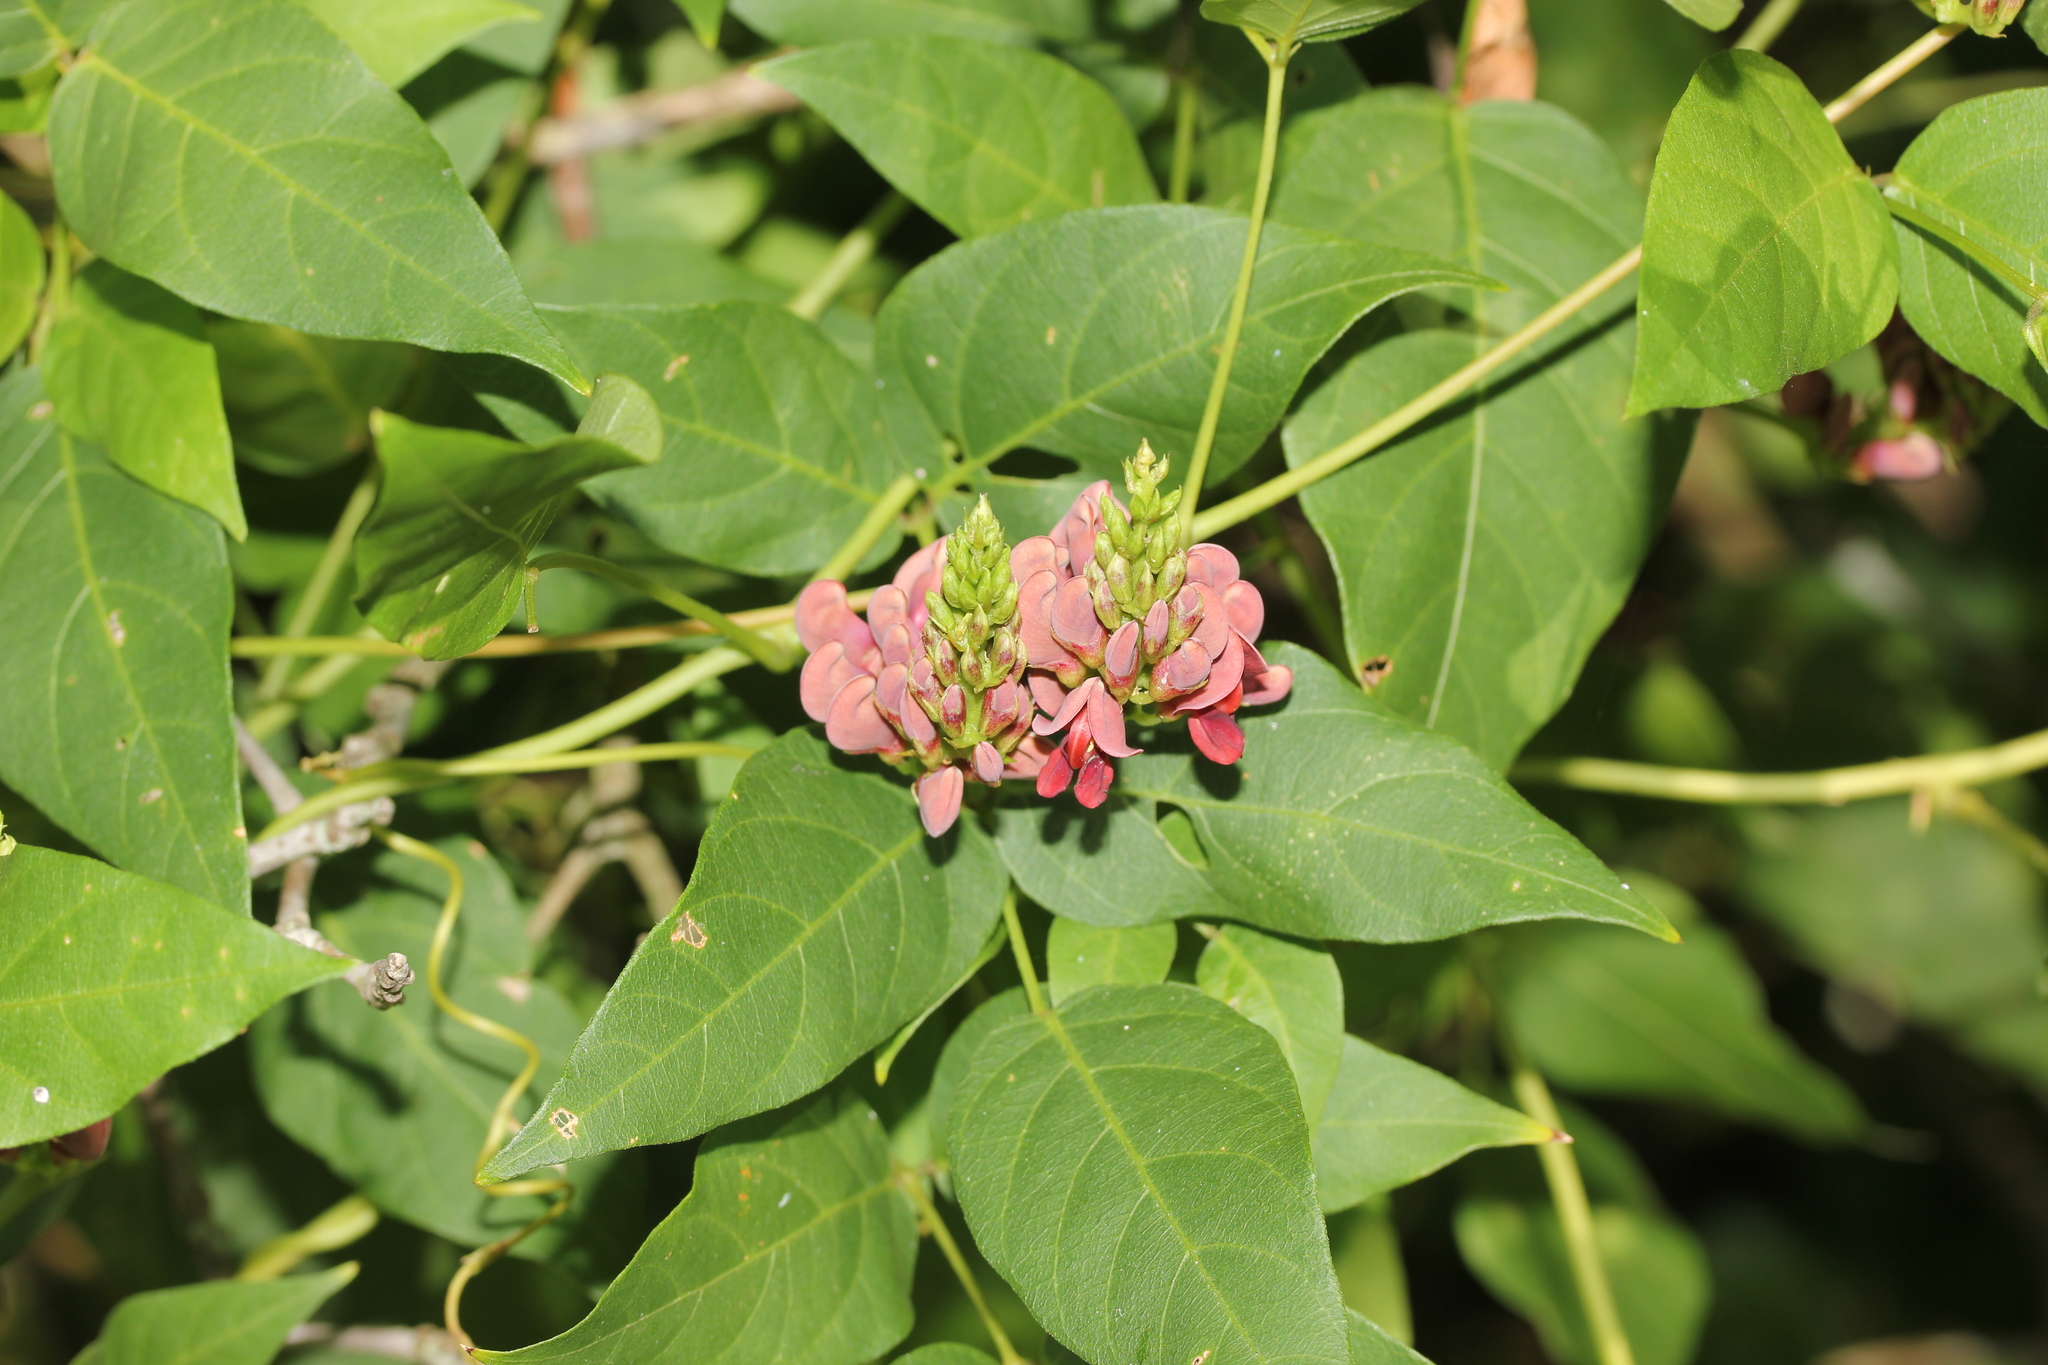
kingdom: Plantae
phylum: Tracheophyta
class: Magnoliopsida
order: Fabales
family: Fabaceae
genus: Apios
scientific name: Apios americana
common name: American potato-bean
